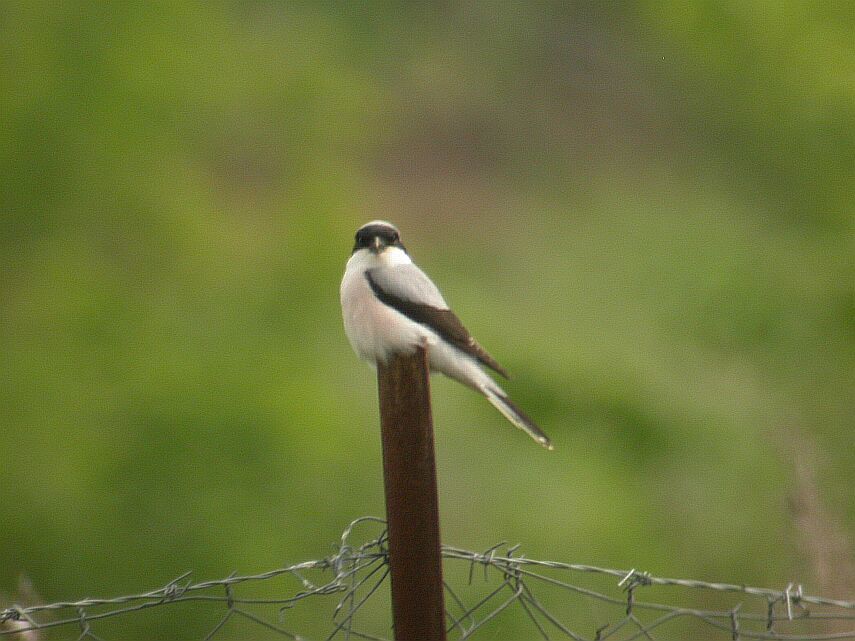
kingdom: Animalia
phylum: Chordata
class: Aves
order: Passeriformes
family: Laniidae
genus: Lanius
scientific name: Lanius minor
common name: Lesser grey shrike
